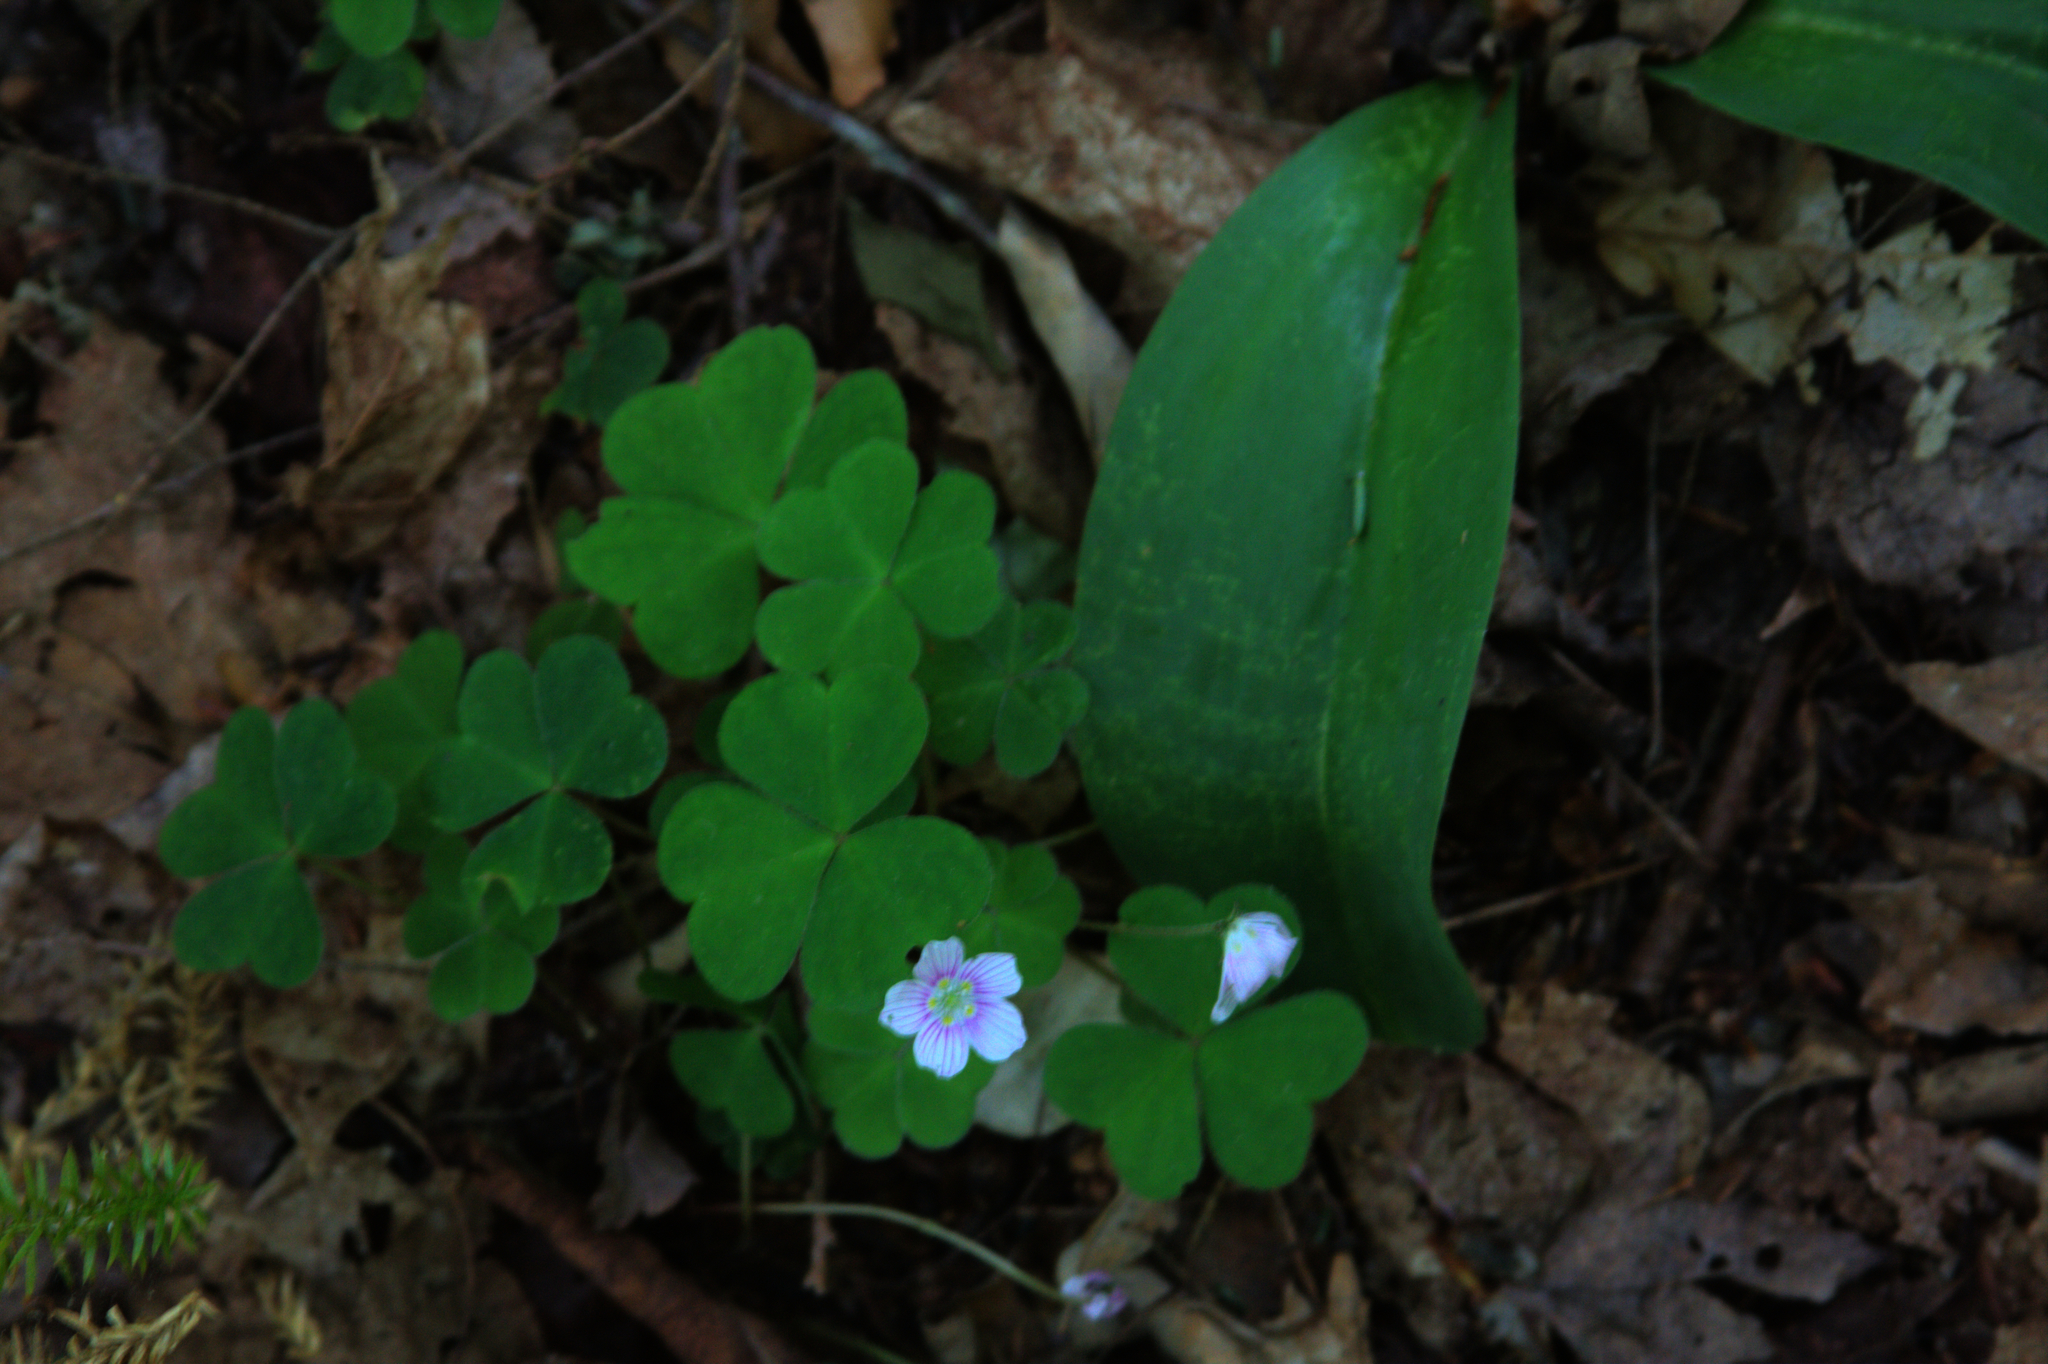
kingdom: Plantae
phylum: Tracheophyta
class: Liliopsida
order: Liliales
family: Liliaceae
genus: Clintonia
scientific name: Clintonia borealis
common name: Yellow clintonia
